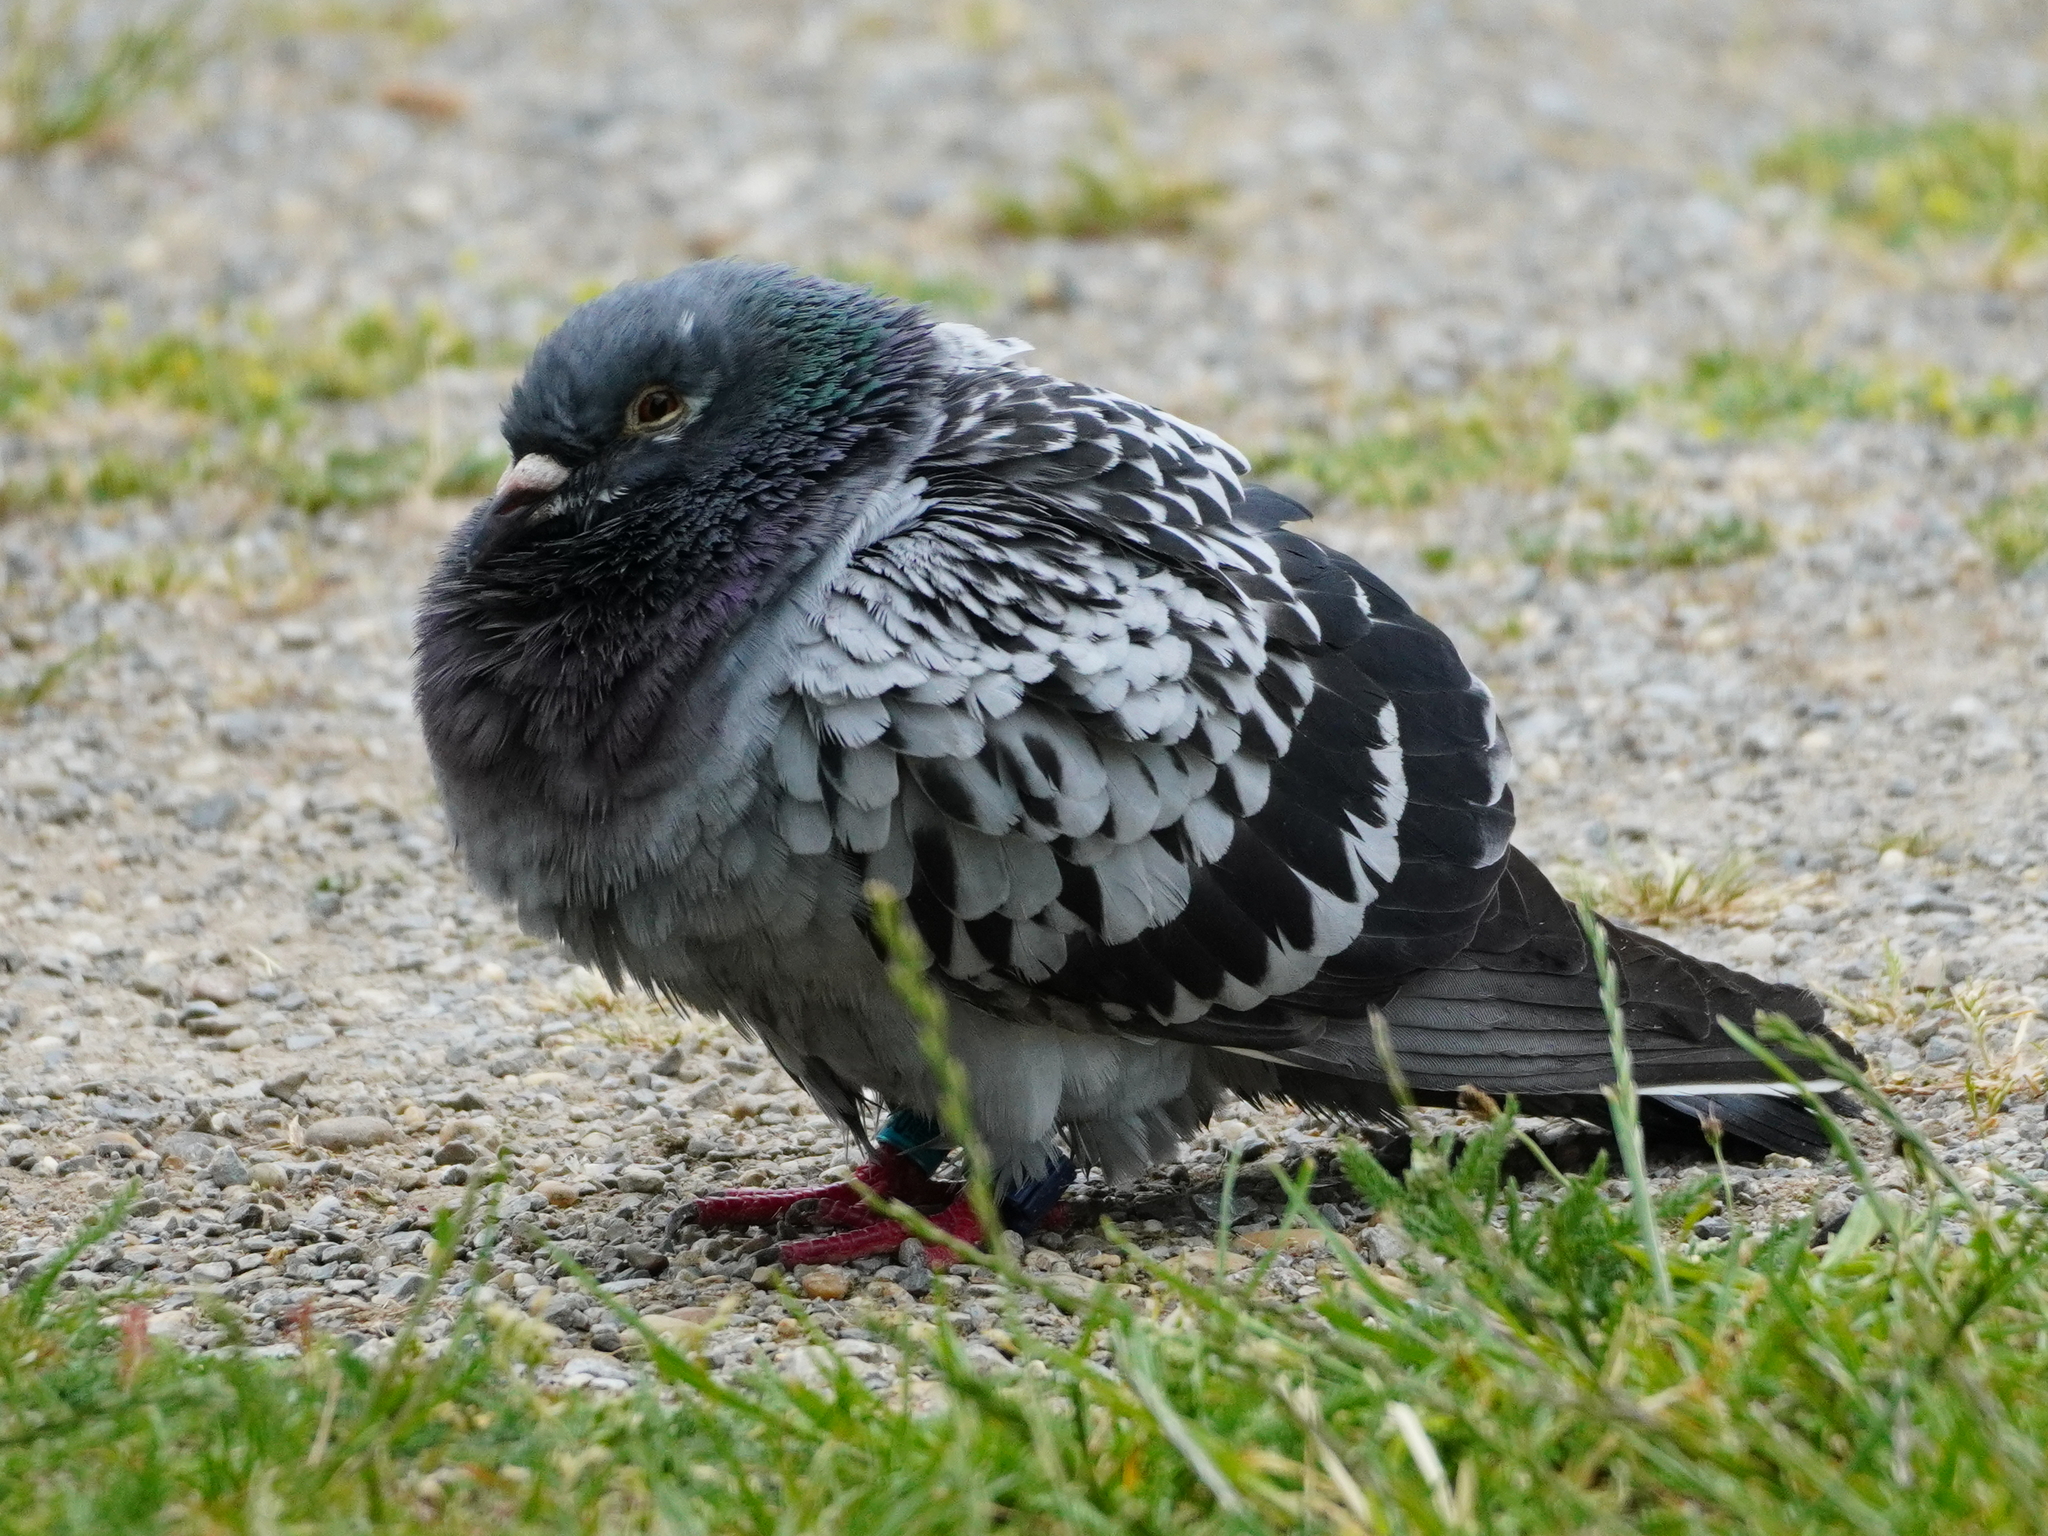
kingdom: Animalia
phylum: Chordata
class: Aves
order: Columbiformes
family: Columbidae
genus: Columba
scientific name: Columba livia
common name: Rock pigeon
